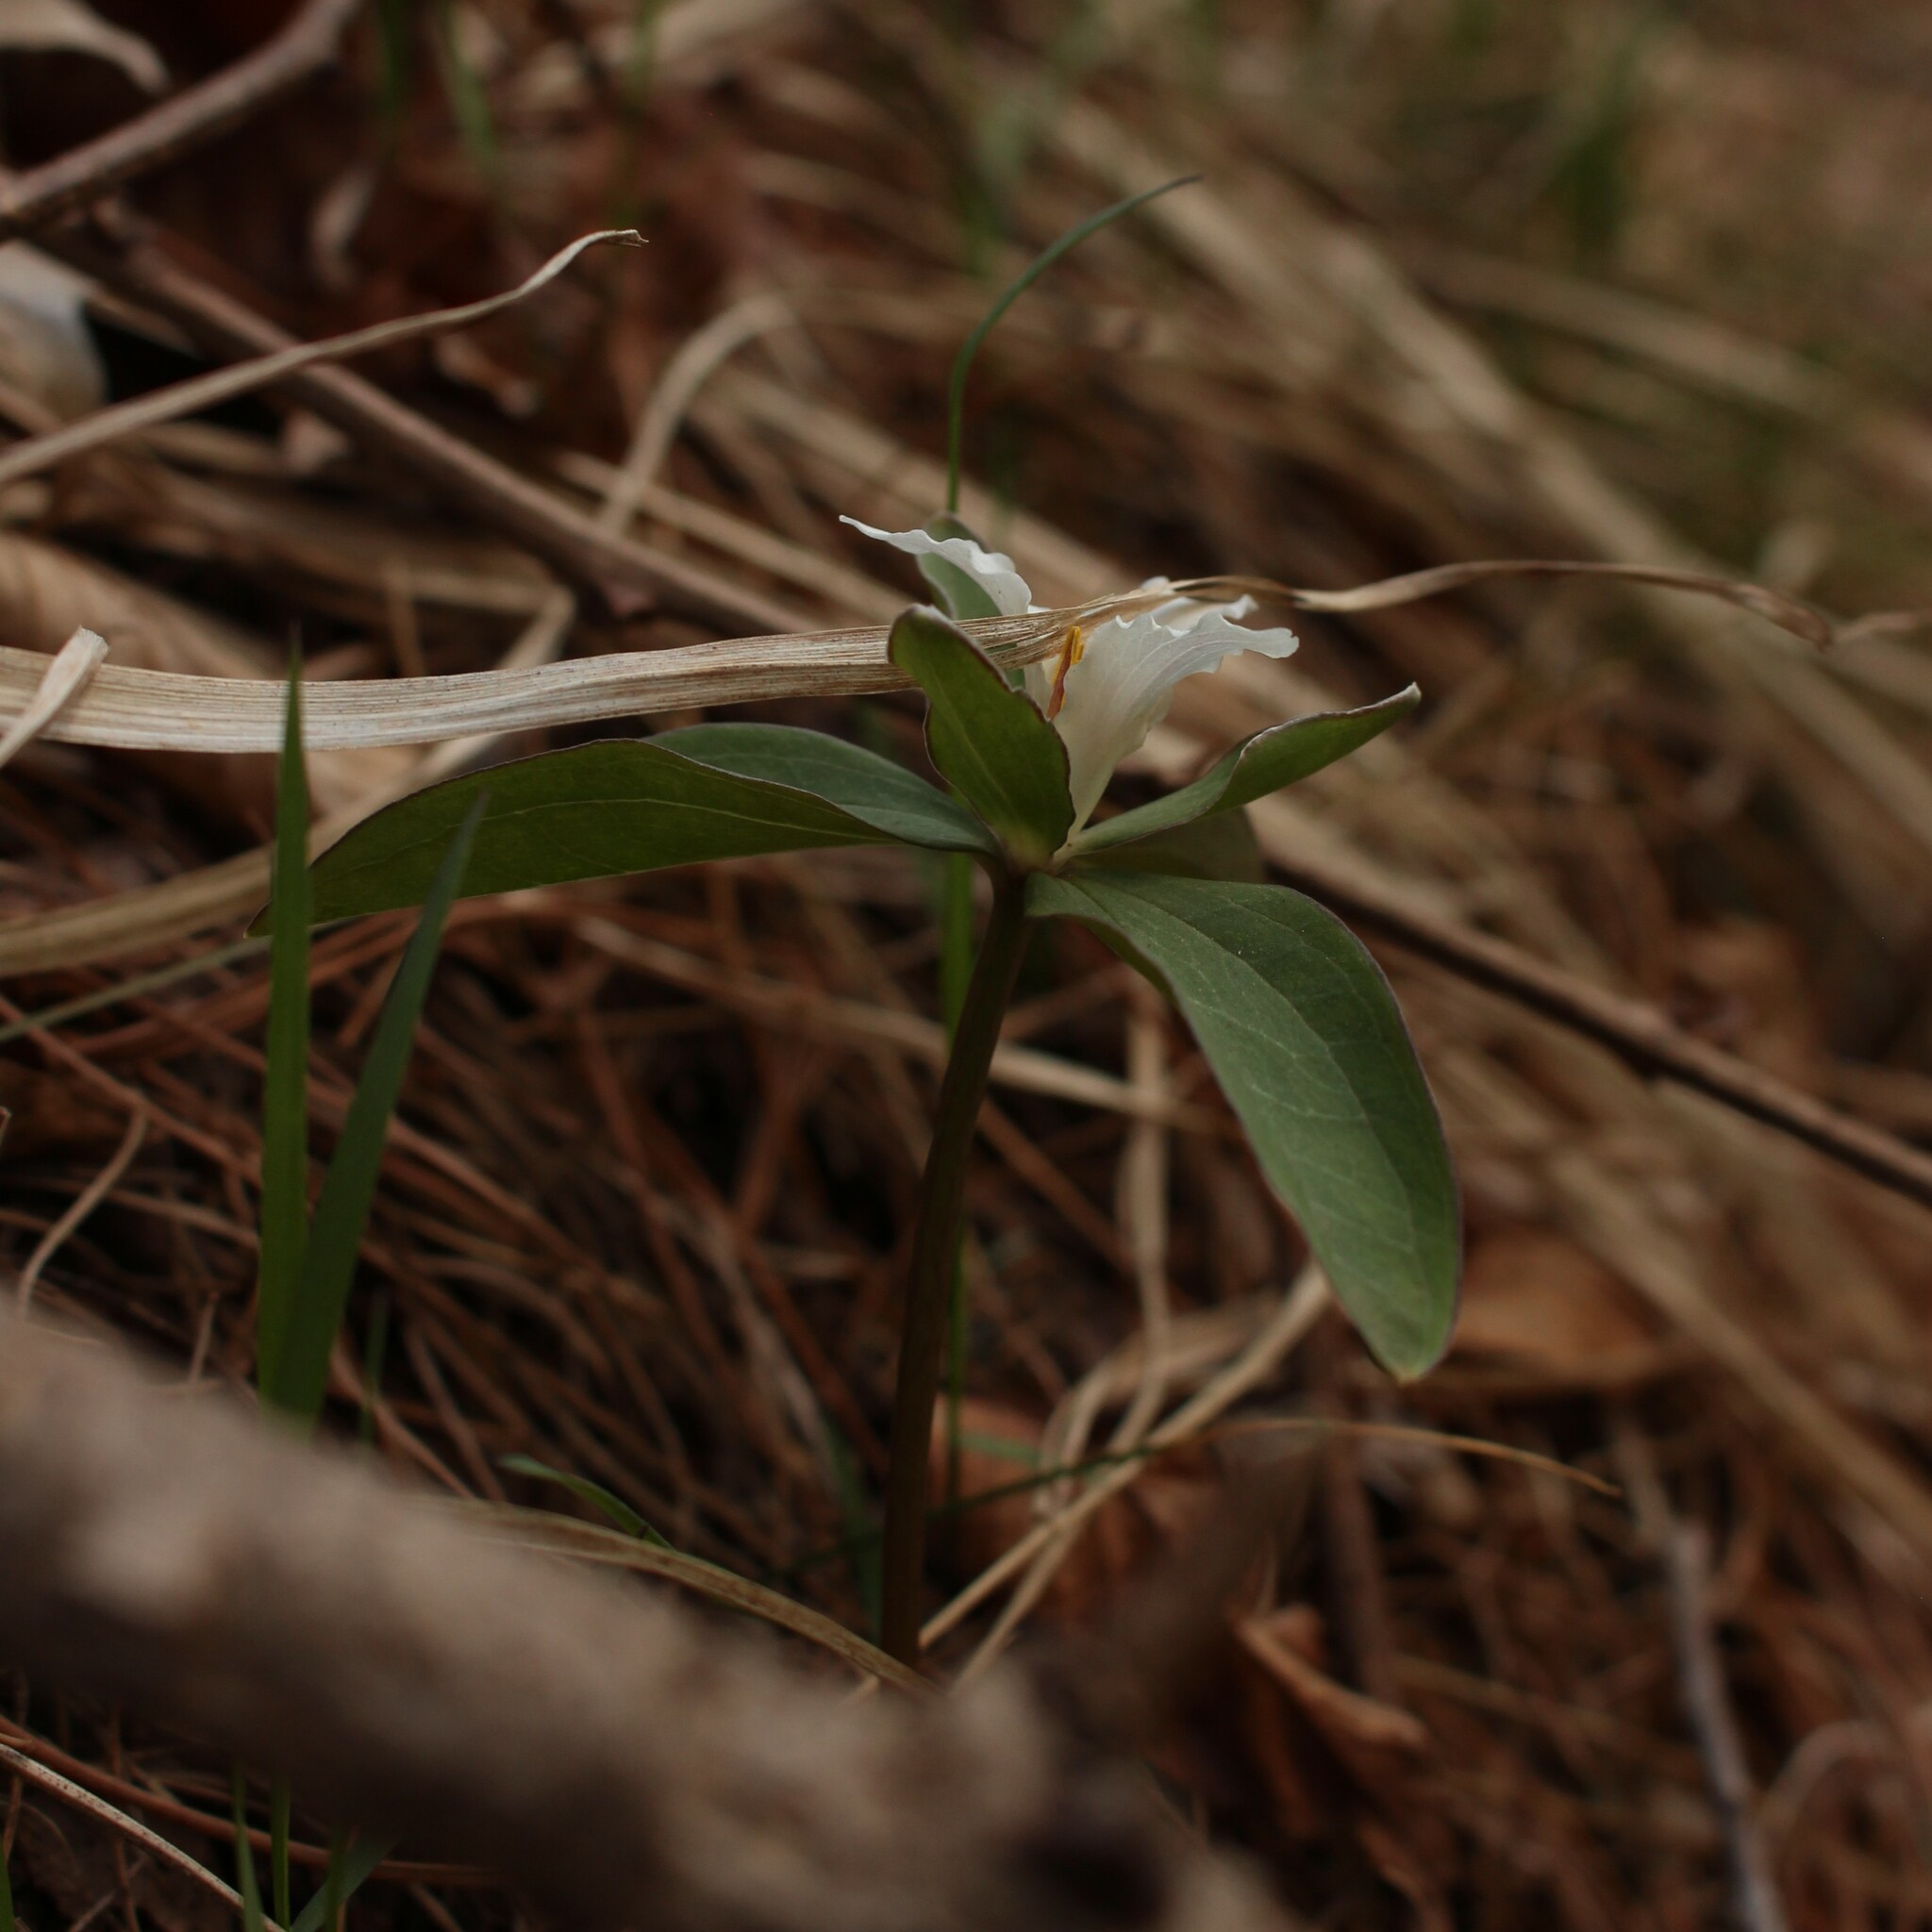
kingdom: Plantae
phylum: Tracheophyta
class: Liliopsida
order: Liliales
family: Melanthiaceae
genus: Trillium
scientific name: Trillium pusillum
